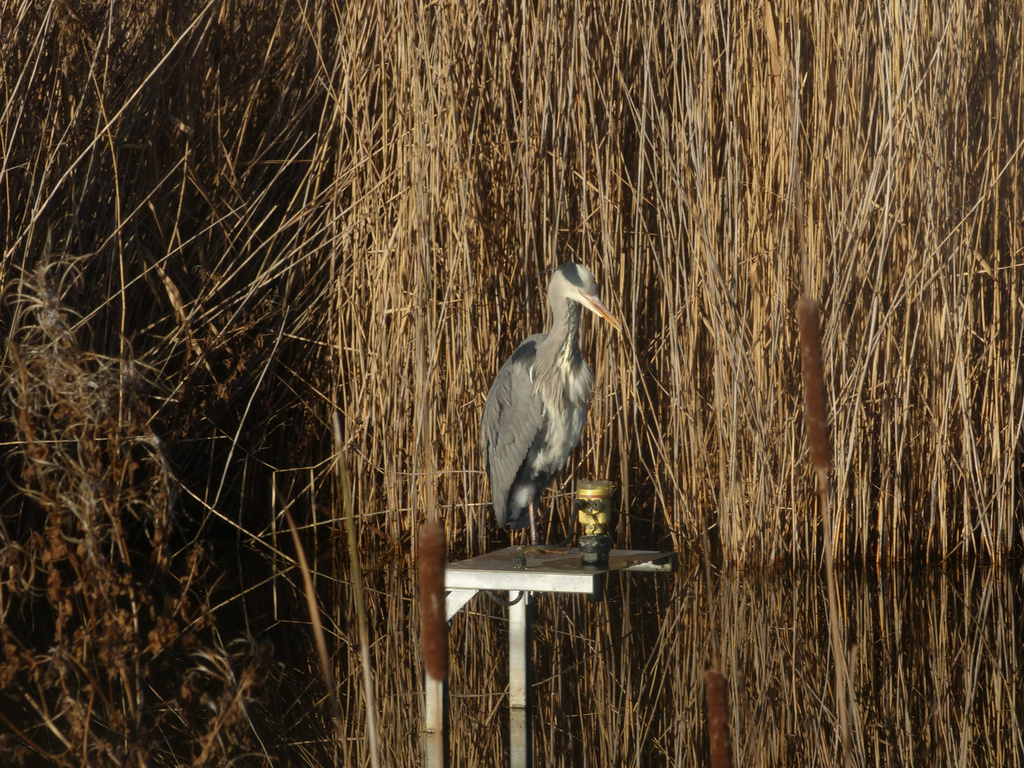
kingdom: Animalia
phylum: Chordata
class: Aves
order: Pelecaniformes
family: Ardeidae
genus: Ardea
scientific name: Ardea cinerea
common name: Grey heron
